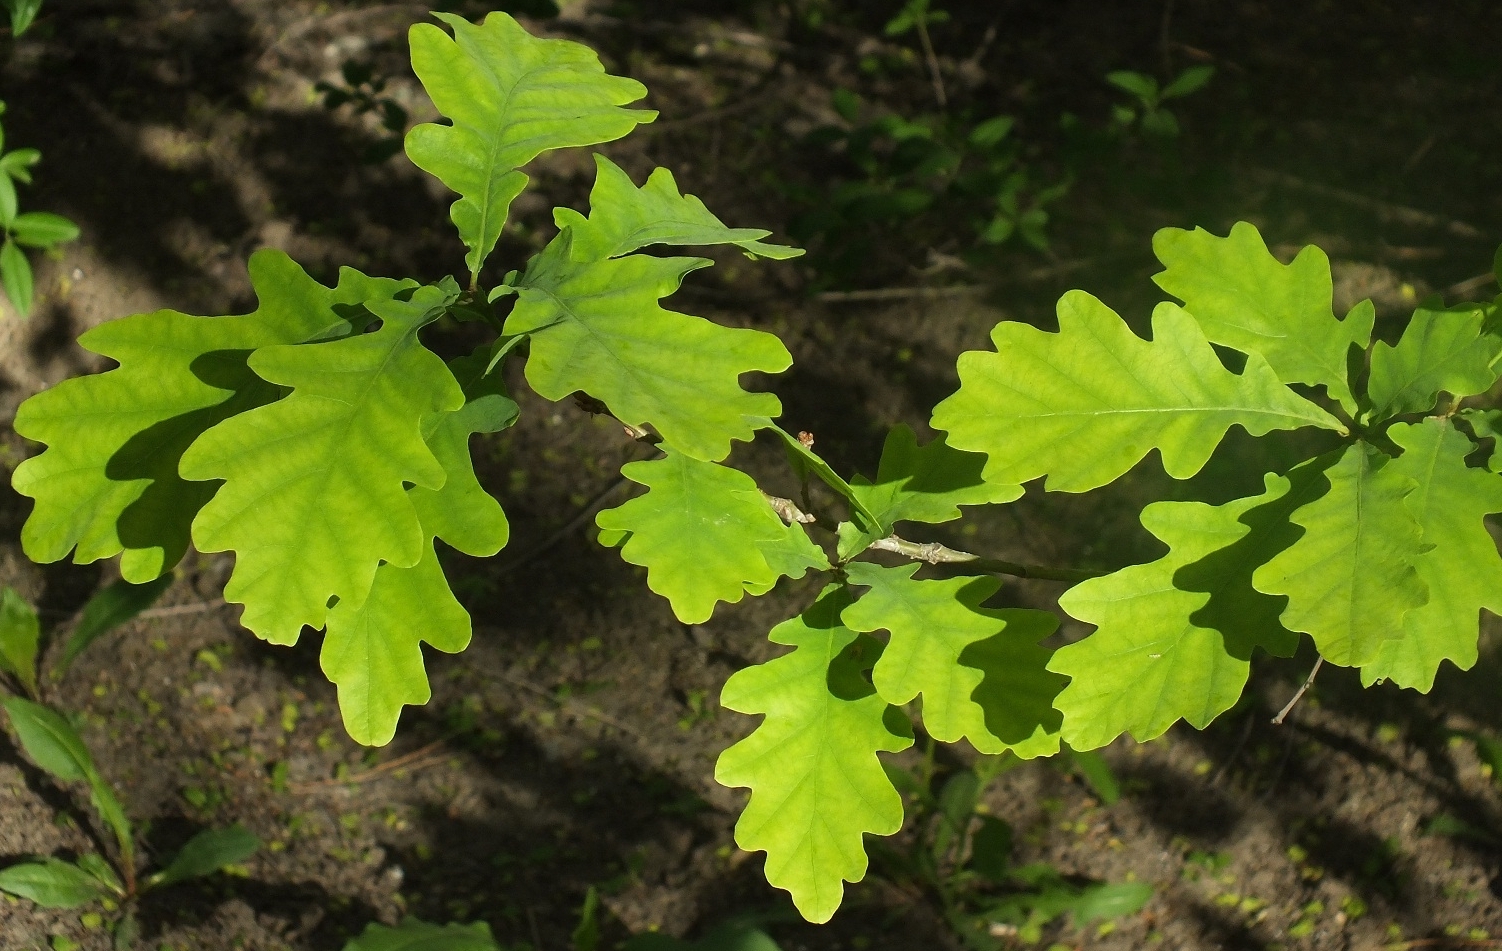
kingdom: Plantae
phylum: Tracheophyta
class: Magnoliopsida
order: Fagales
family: Fagaceae
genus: Quercus
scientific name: Quercus robur
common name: Pedunculate oak
